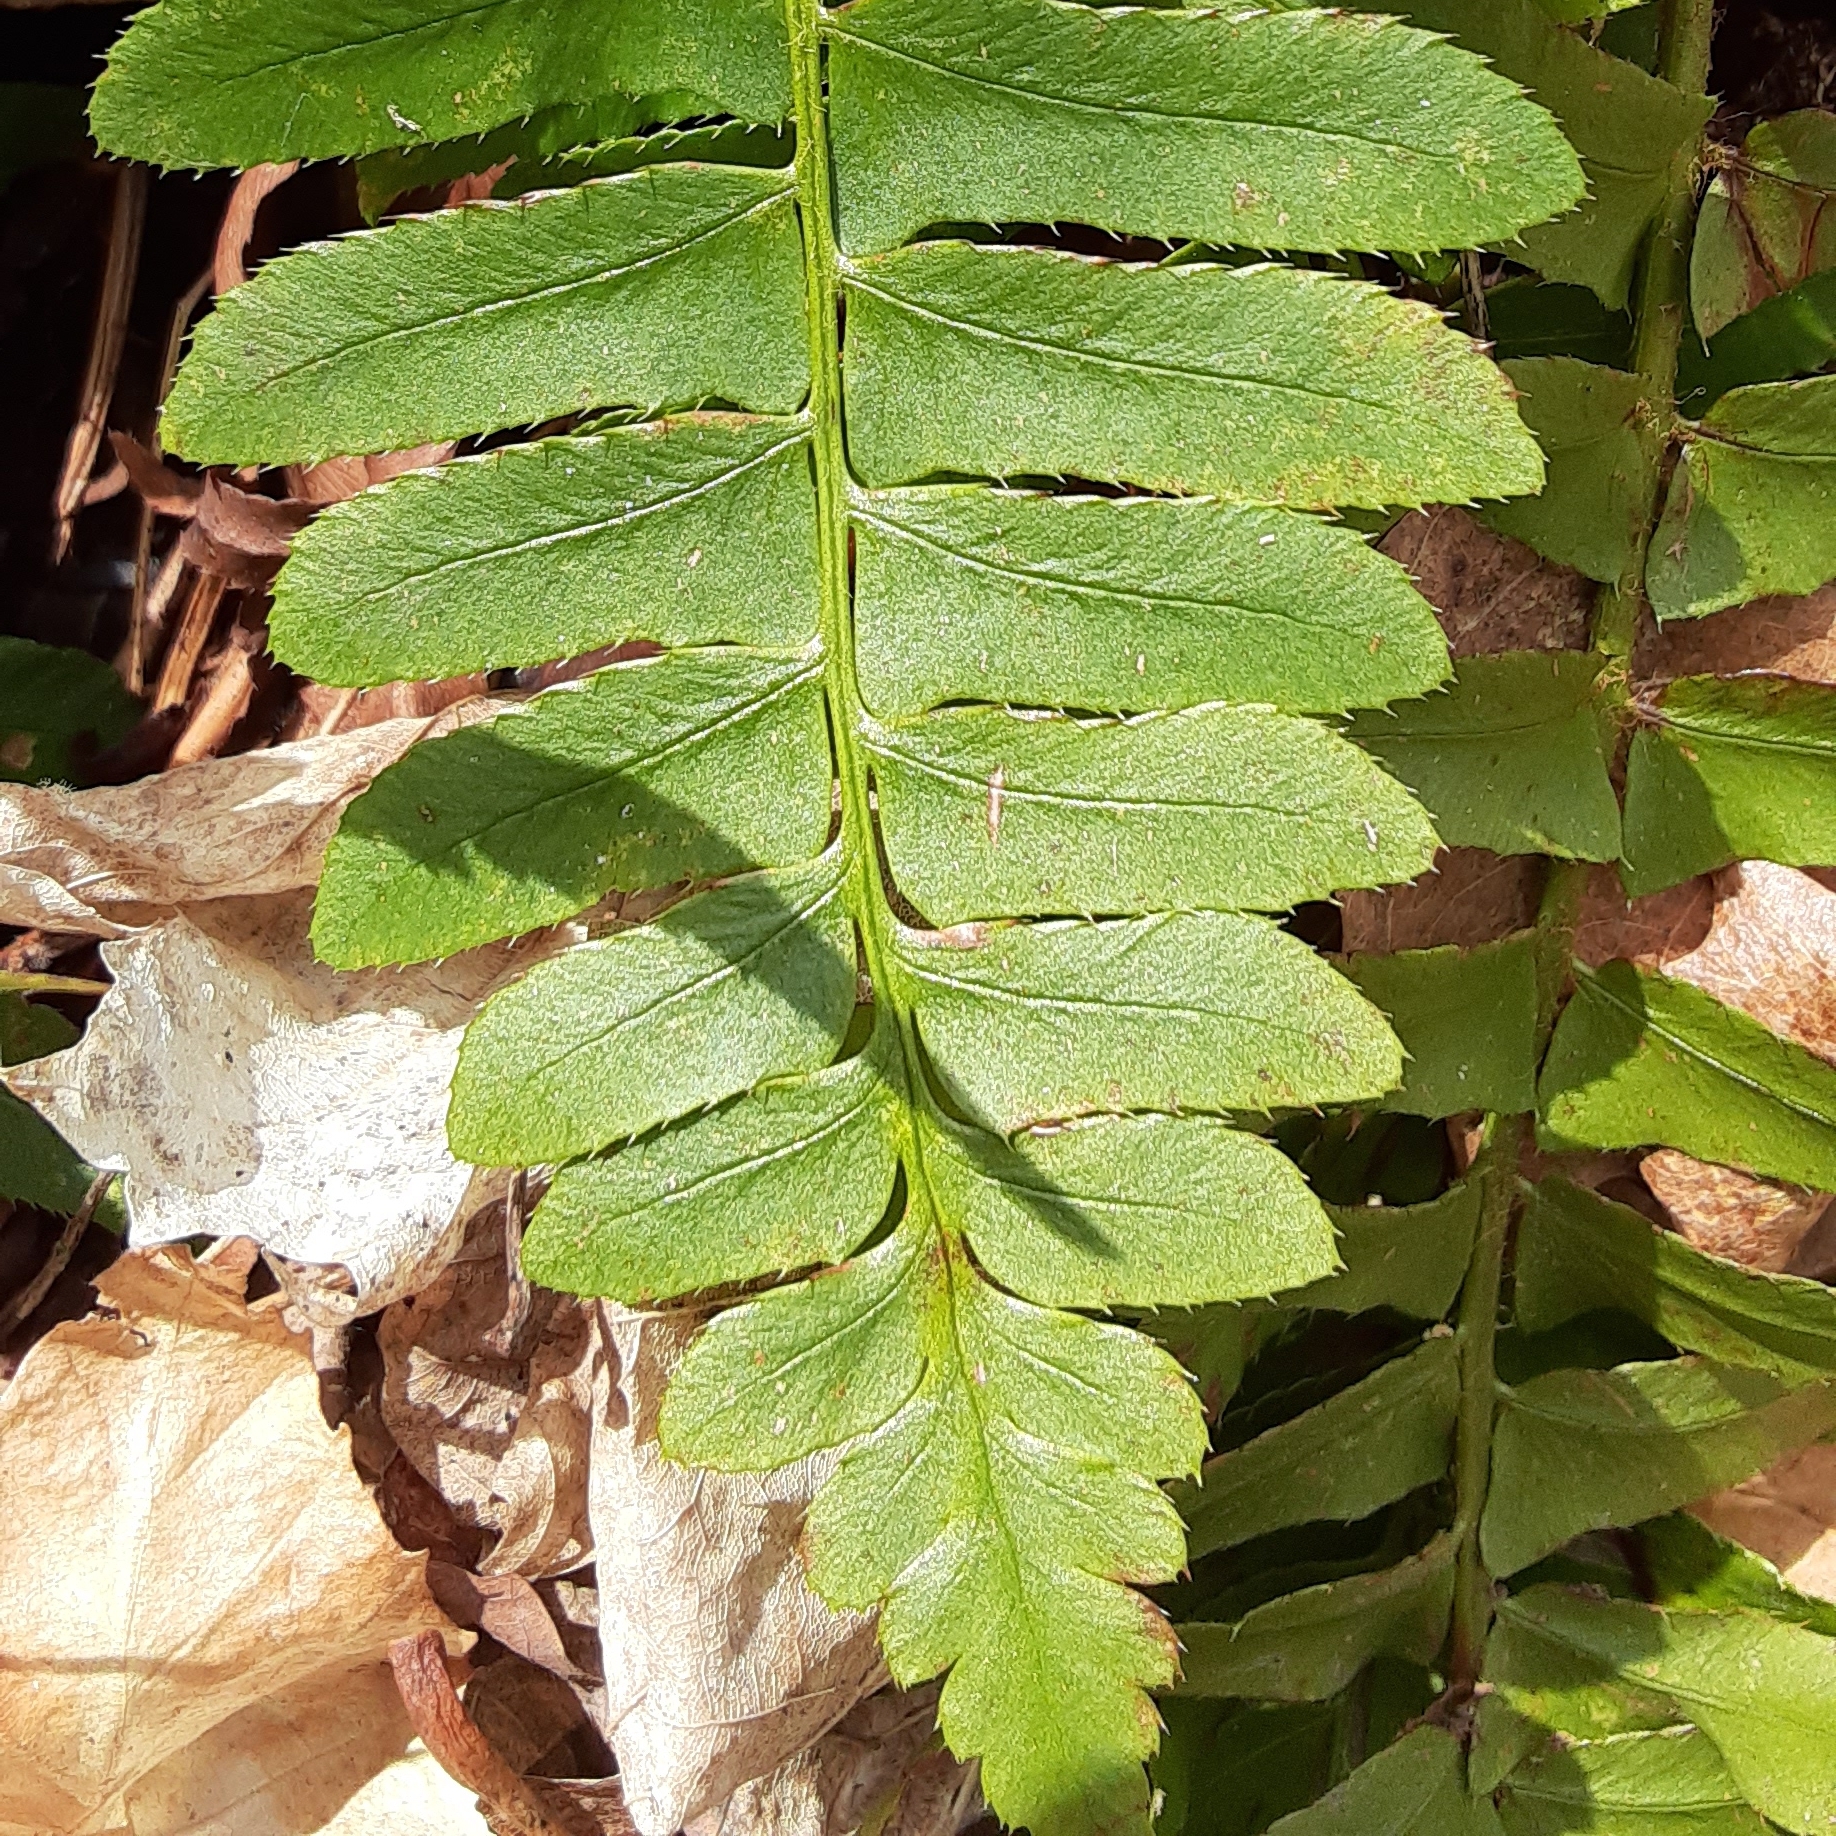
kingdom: Plantae
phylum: Tracheophyta
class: Polypodiopsida
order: Polypodiales
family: Dryopteridaceae
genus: Polystichum
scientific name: Polystichum acrostichoides
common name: Christmas fern
